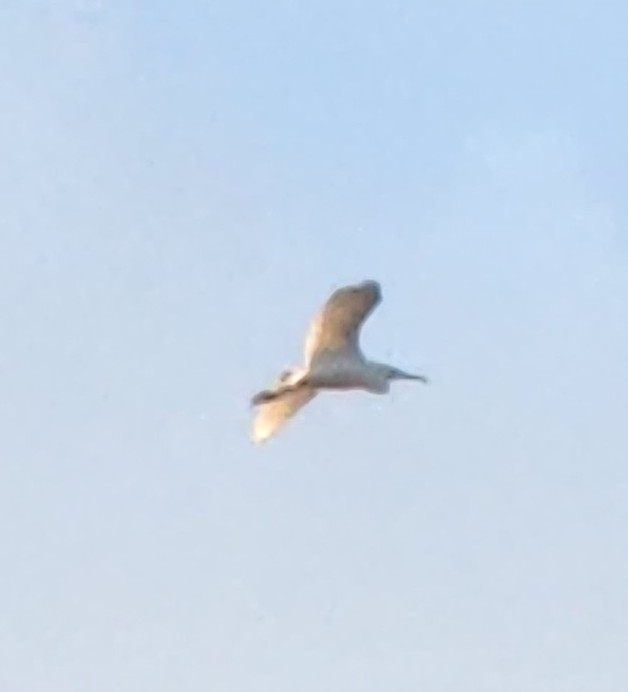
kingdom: Animalia
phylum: Chordata
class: Aves
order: Pelecaniformes
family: Ardeidae
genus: Ardea
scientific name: Ardea alba
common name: Great egret
